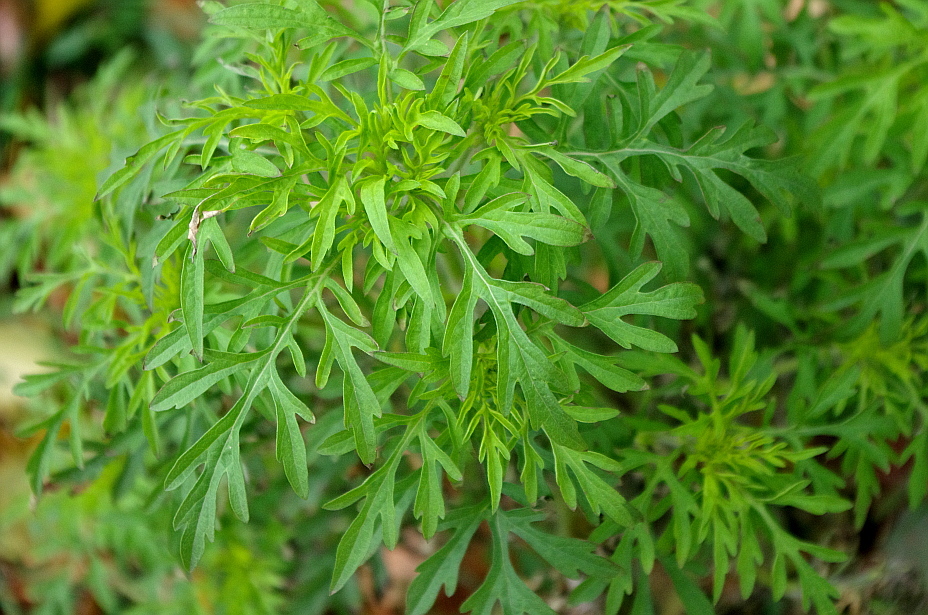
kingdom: Plantae
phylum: Tracheophyta
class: Magnoliopsida
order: Asterales
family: Asteraceae
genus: Ambrosia
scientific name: Ambrosia artemisiifolia
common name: Annual ragweed
